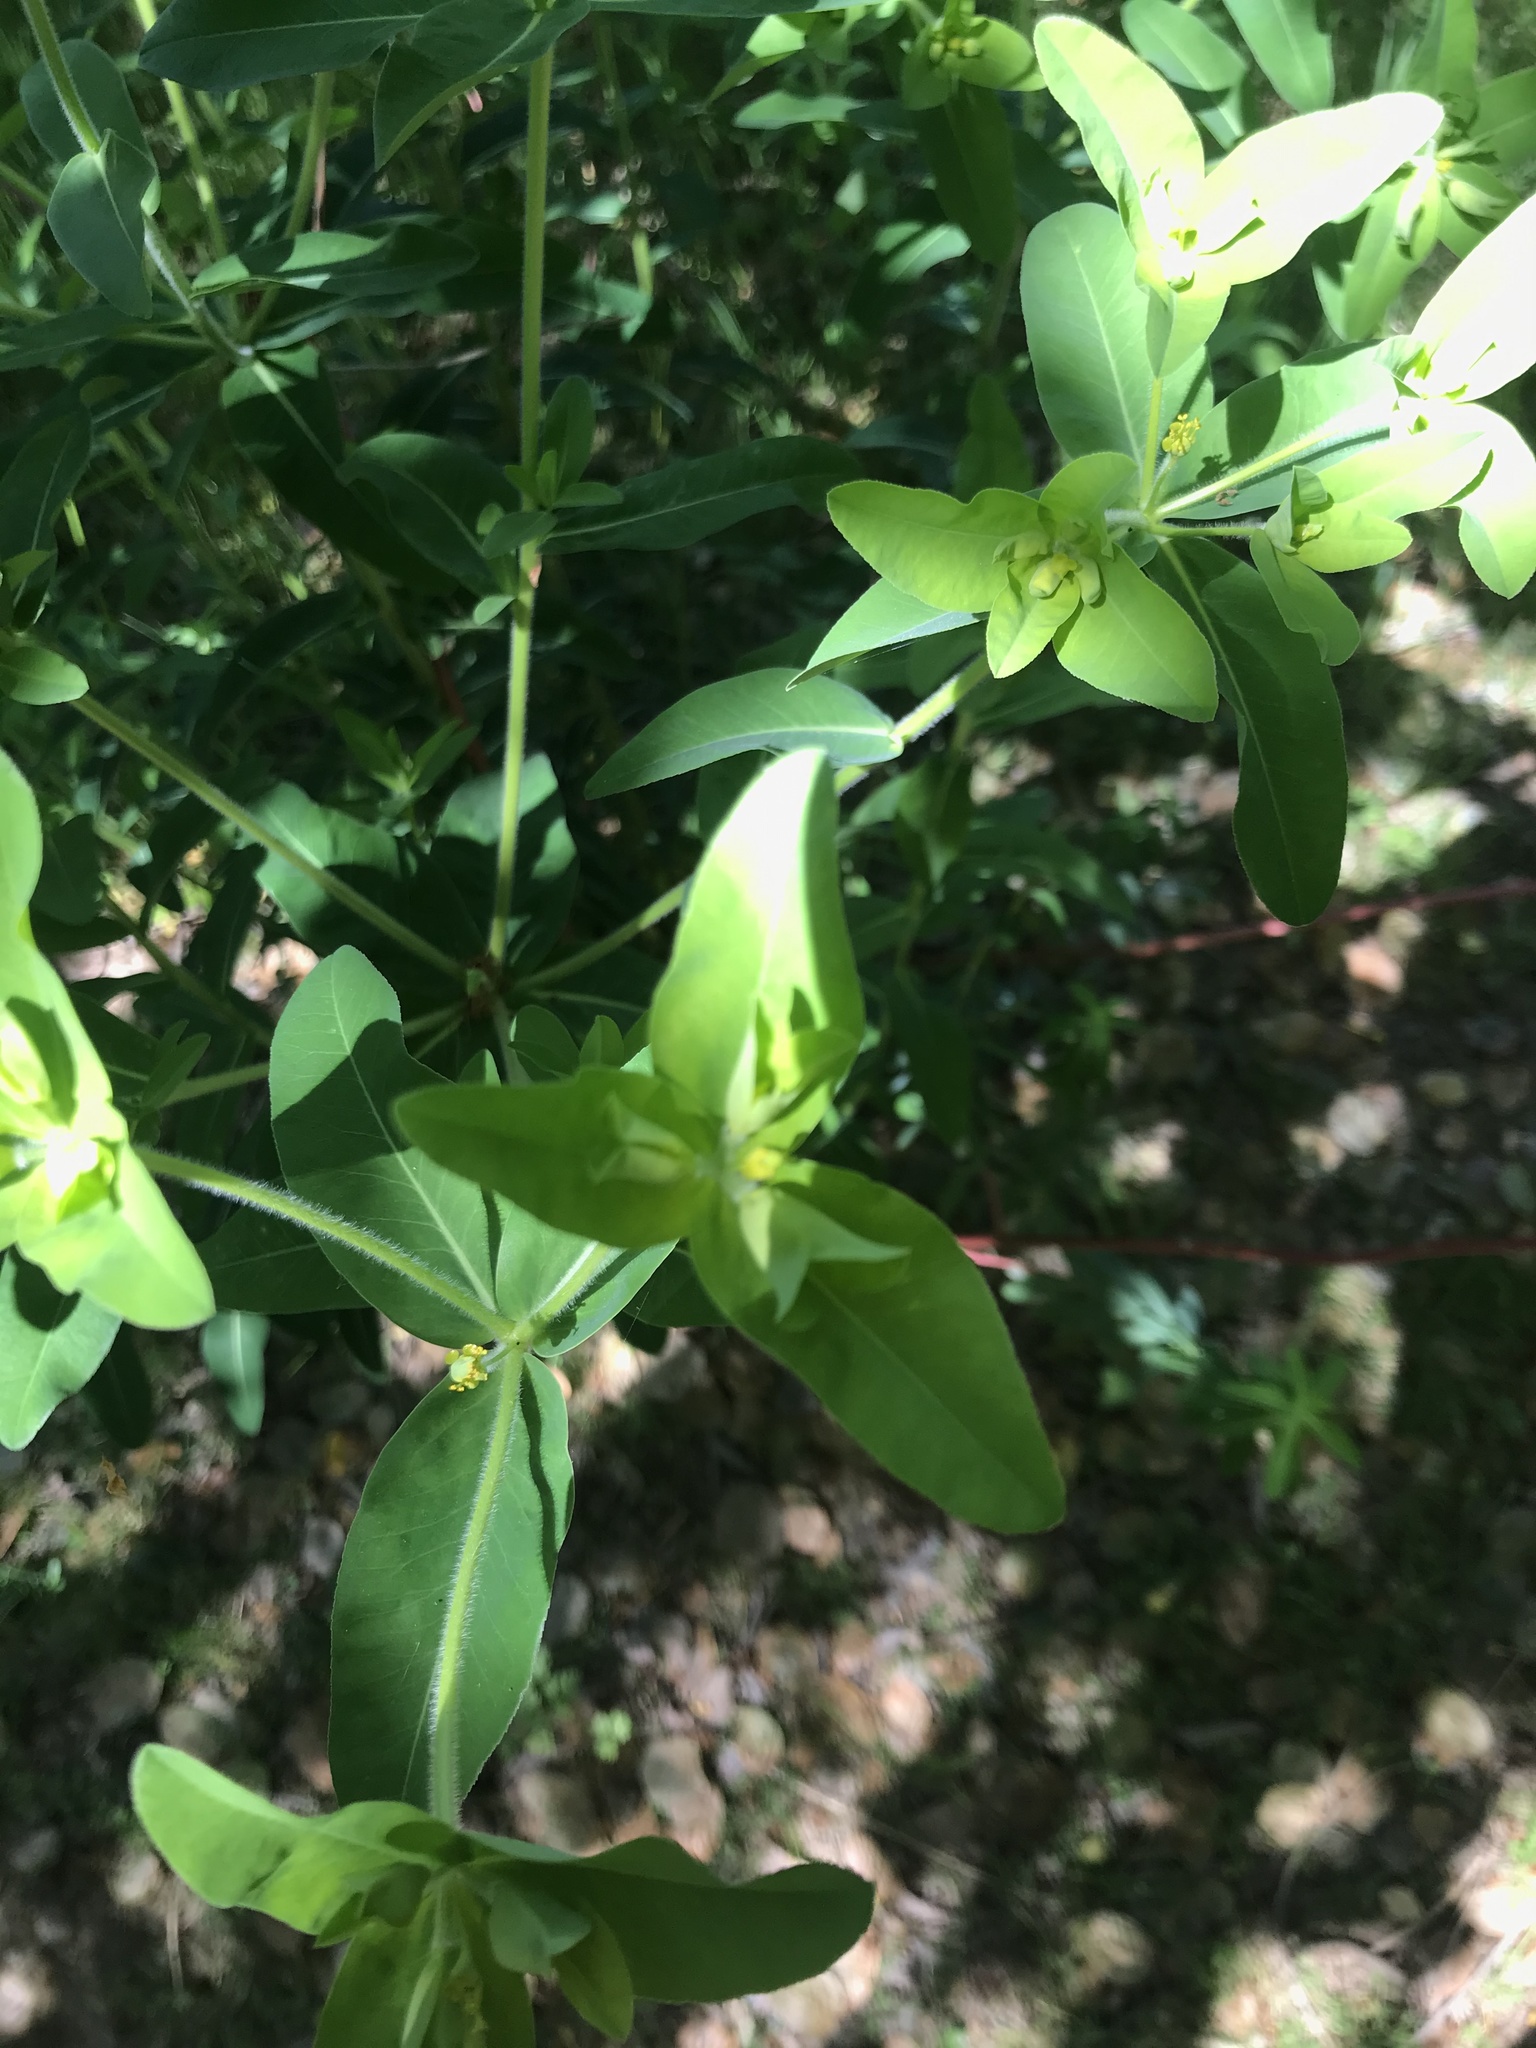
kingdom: Plantae
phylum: Tracheophyta
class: Magnoliopsida
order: Malpighiales
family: Euphorbiaceae
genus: Euphorbia
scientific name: Euphorbia oblongata
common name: Balkan spurge
